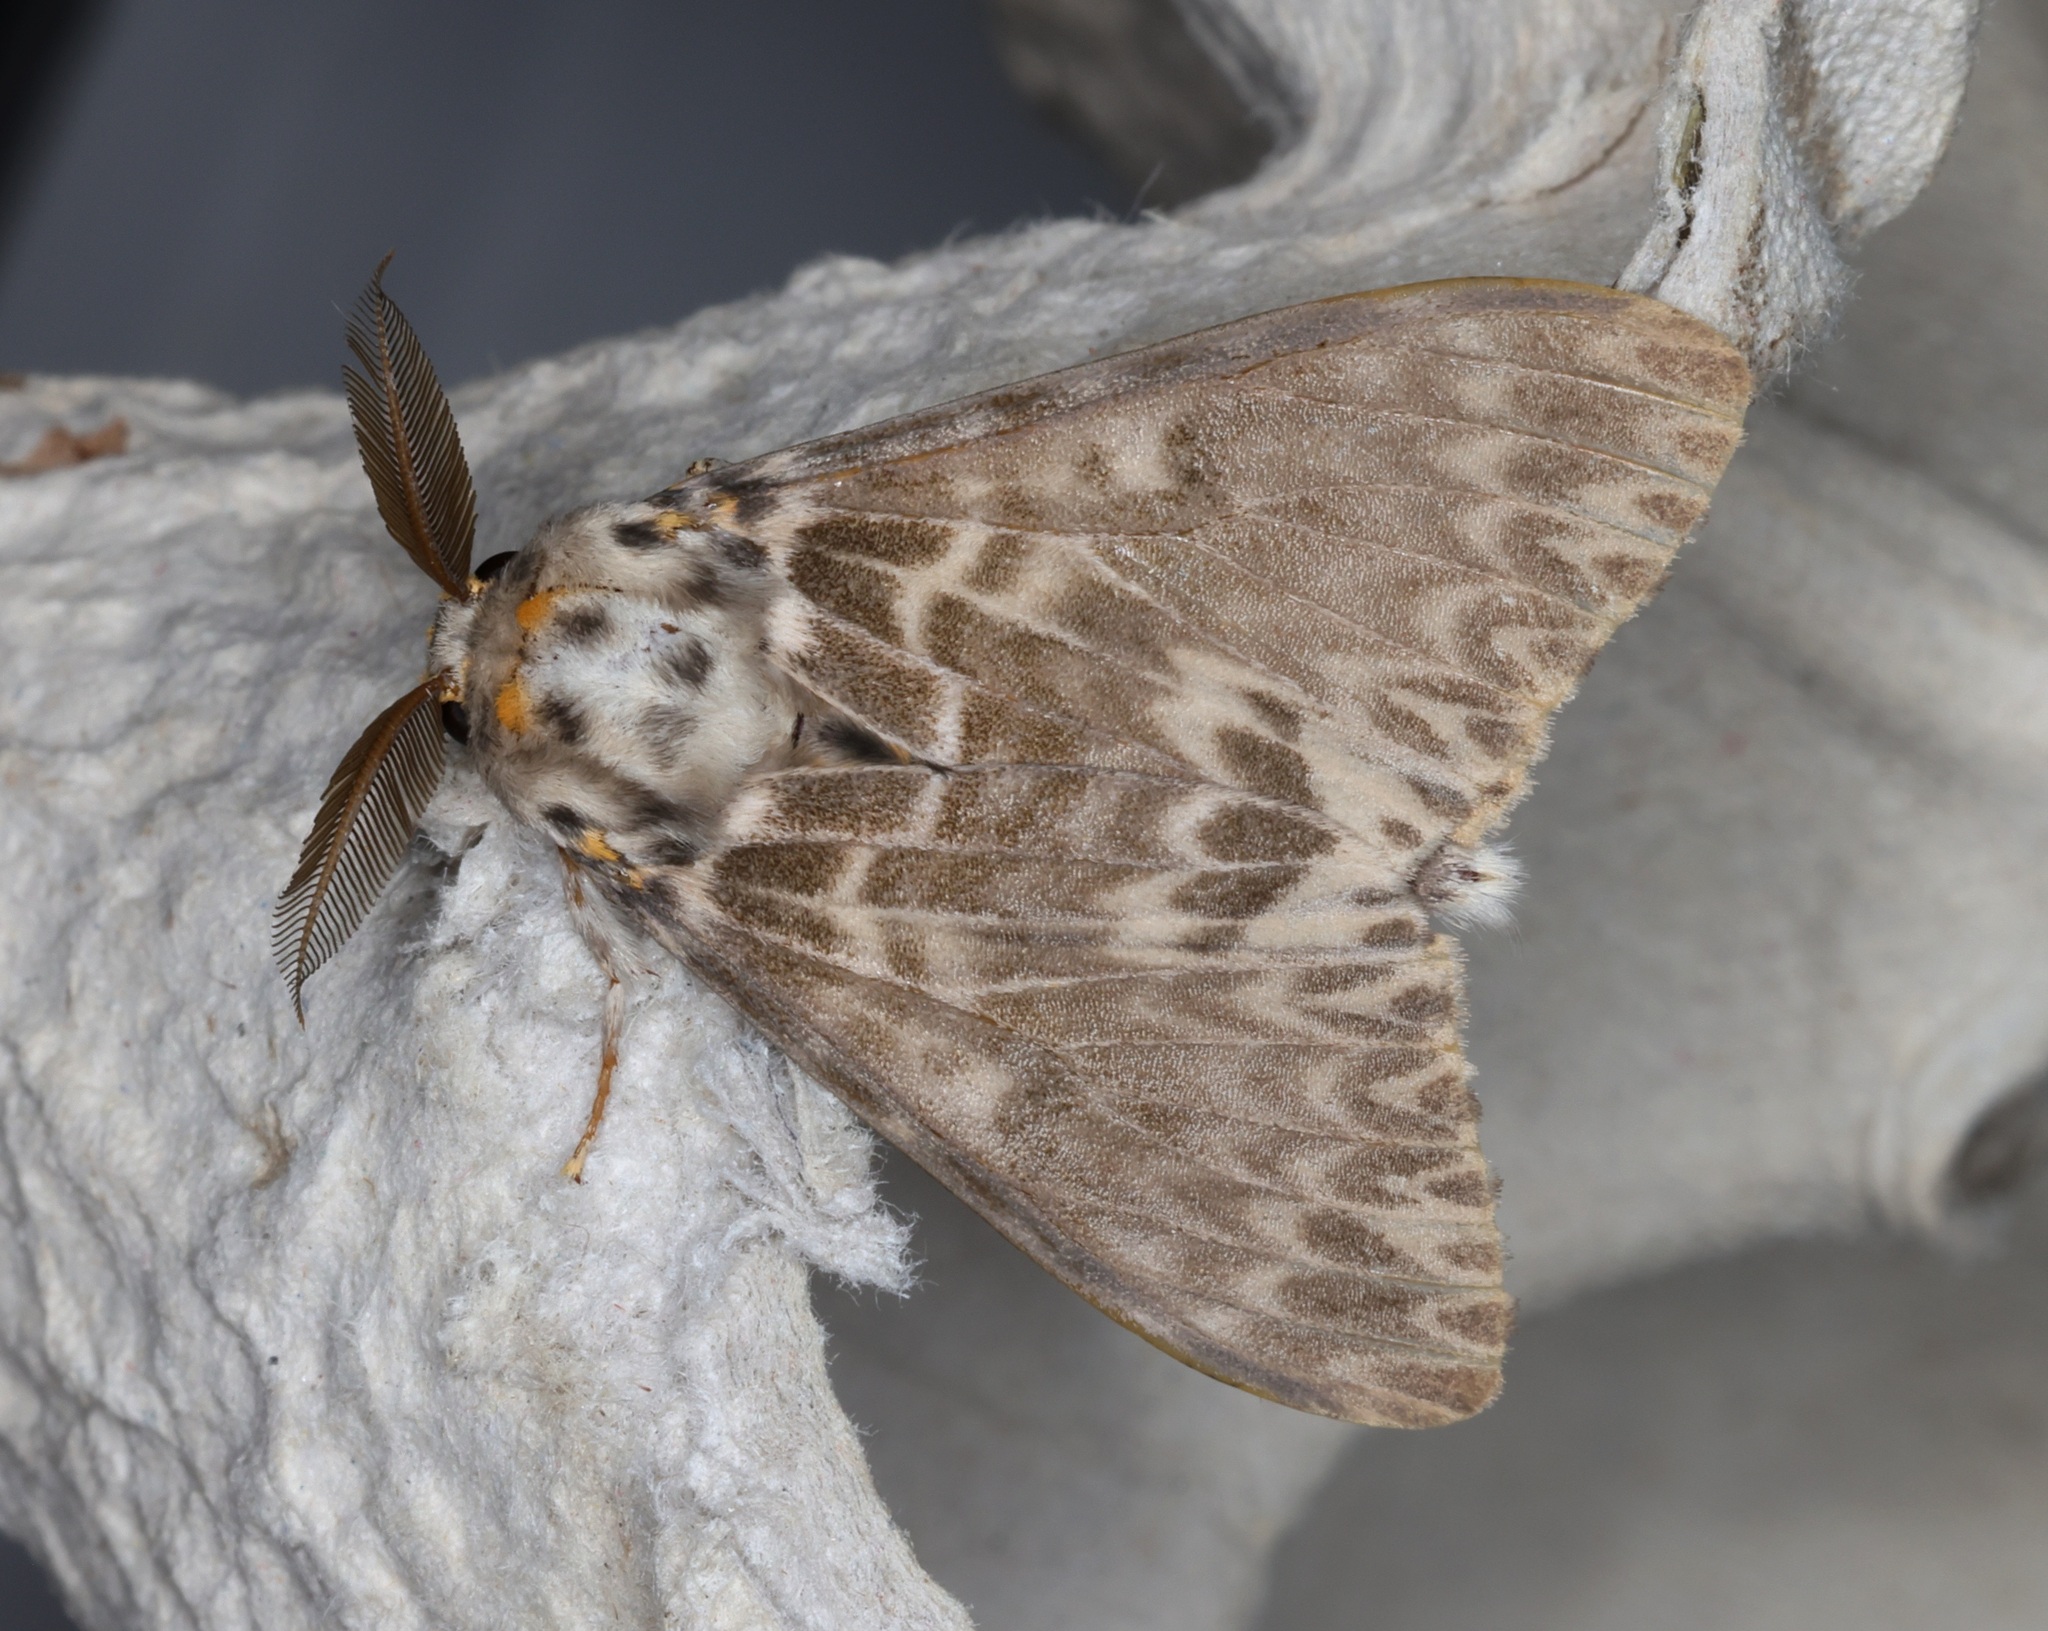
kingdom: Animalia
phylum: Arthropoda
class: Insecta
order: Lepidoptera
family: Erebidae
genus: Lymantria
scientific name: Lymantria mathura
